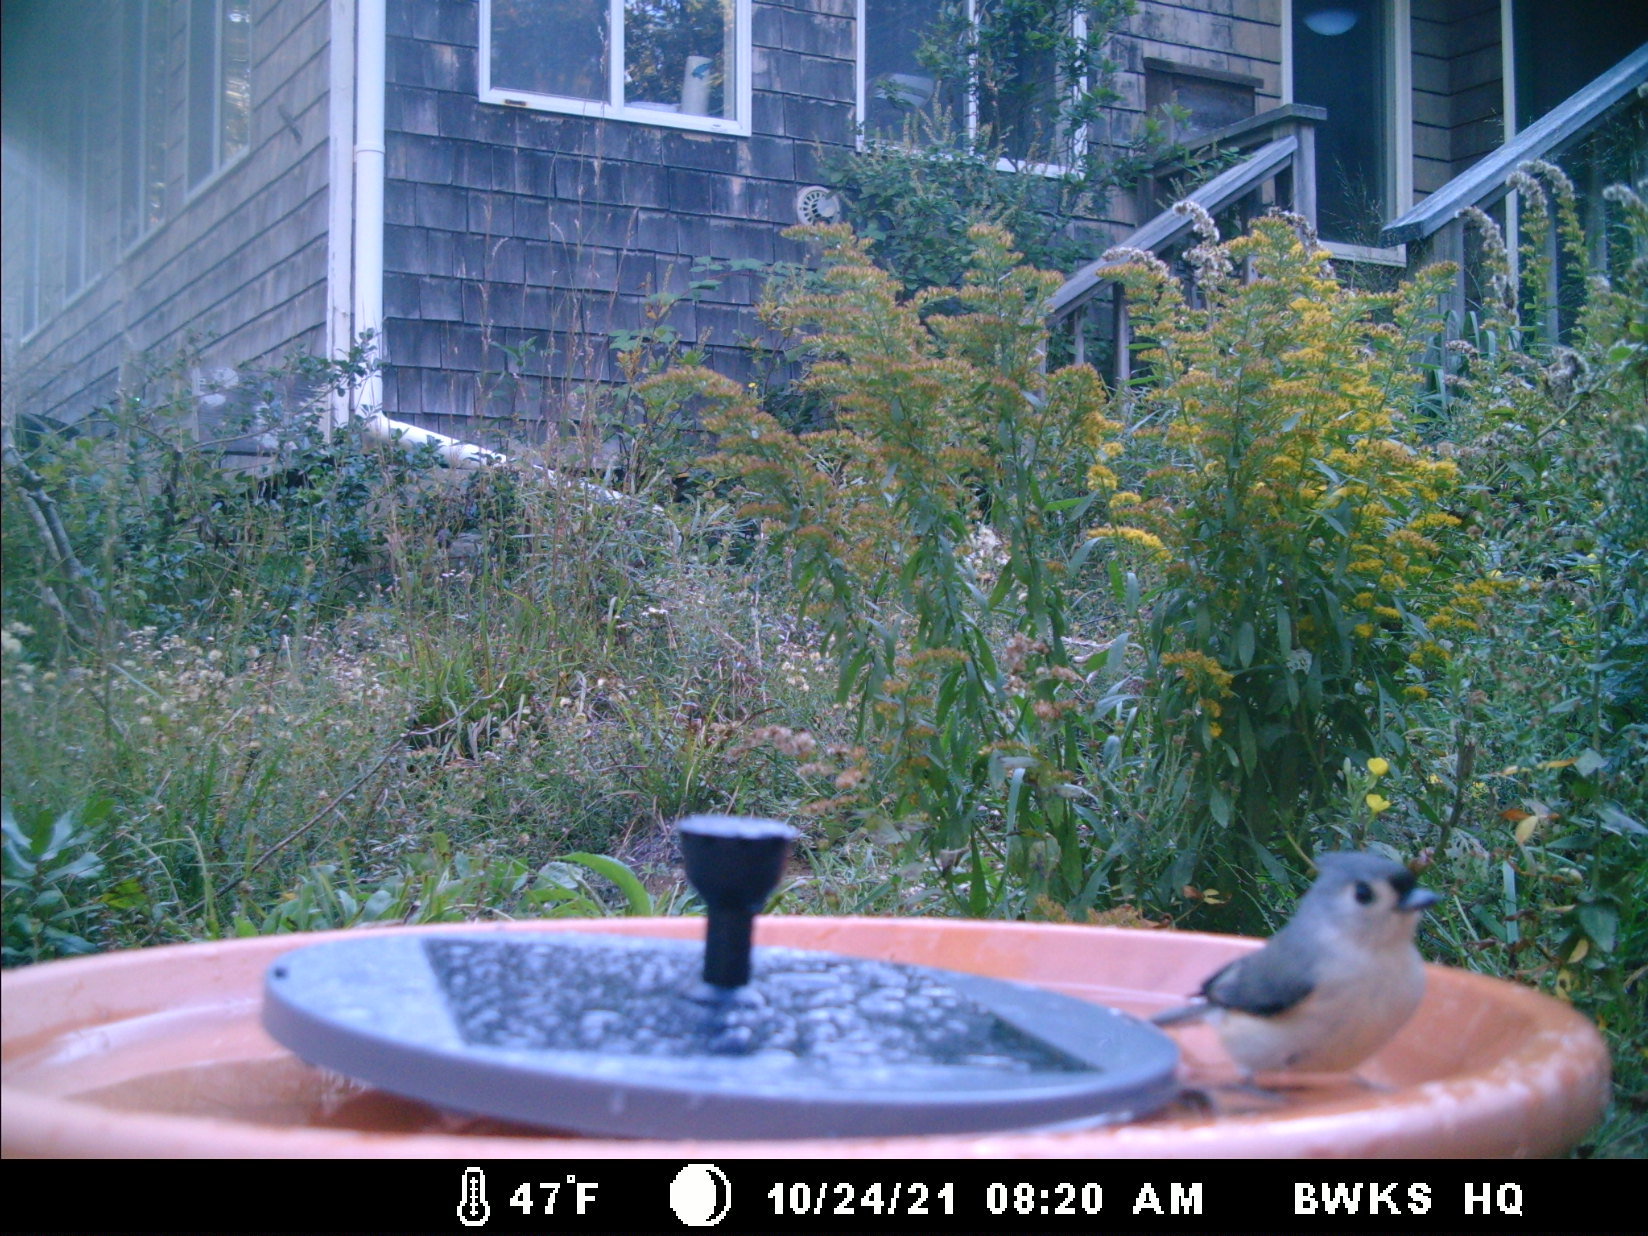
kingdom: Animalia
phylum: Chordata
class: Aves
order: Passeriformes
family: Paridae
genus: Baeolophus
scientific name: Baeolophus bicolor
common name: Tufted titmouse
